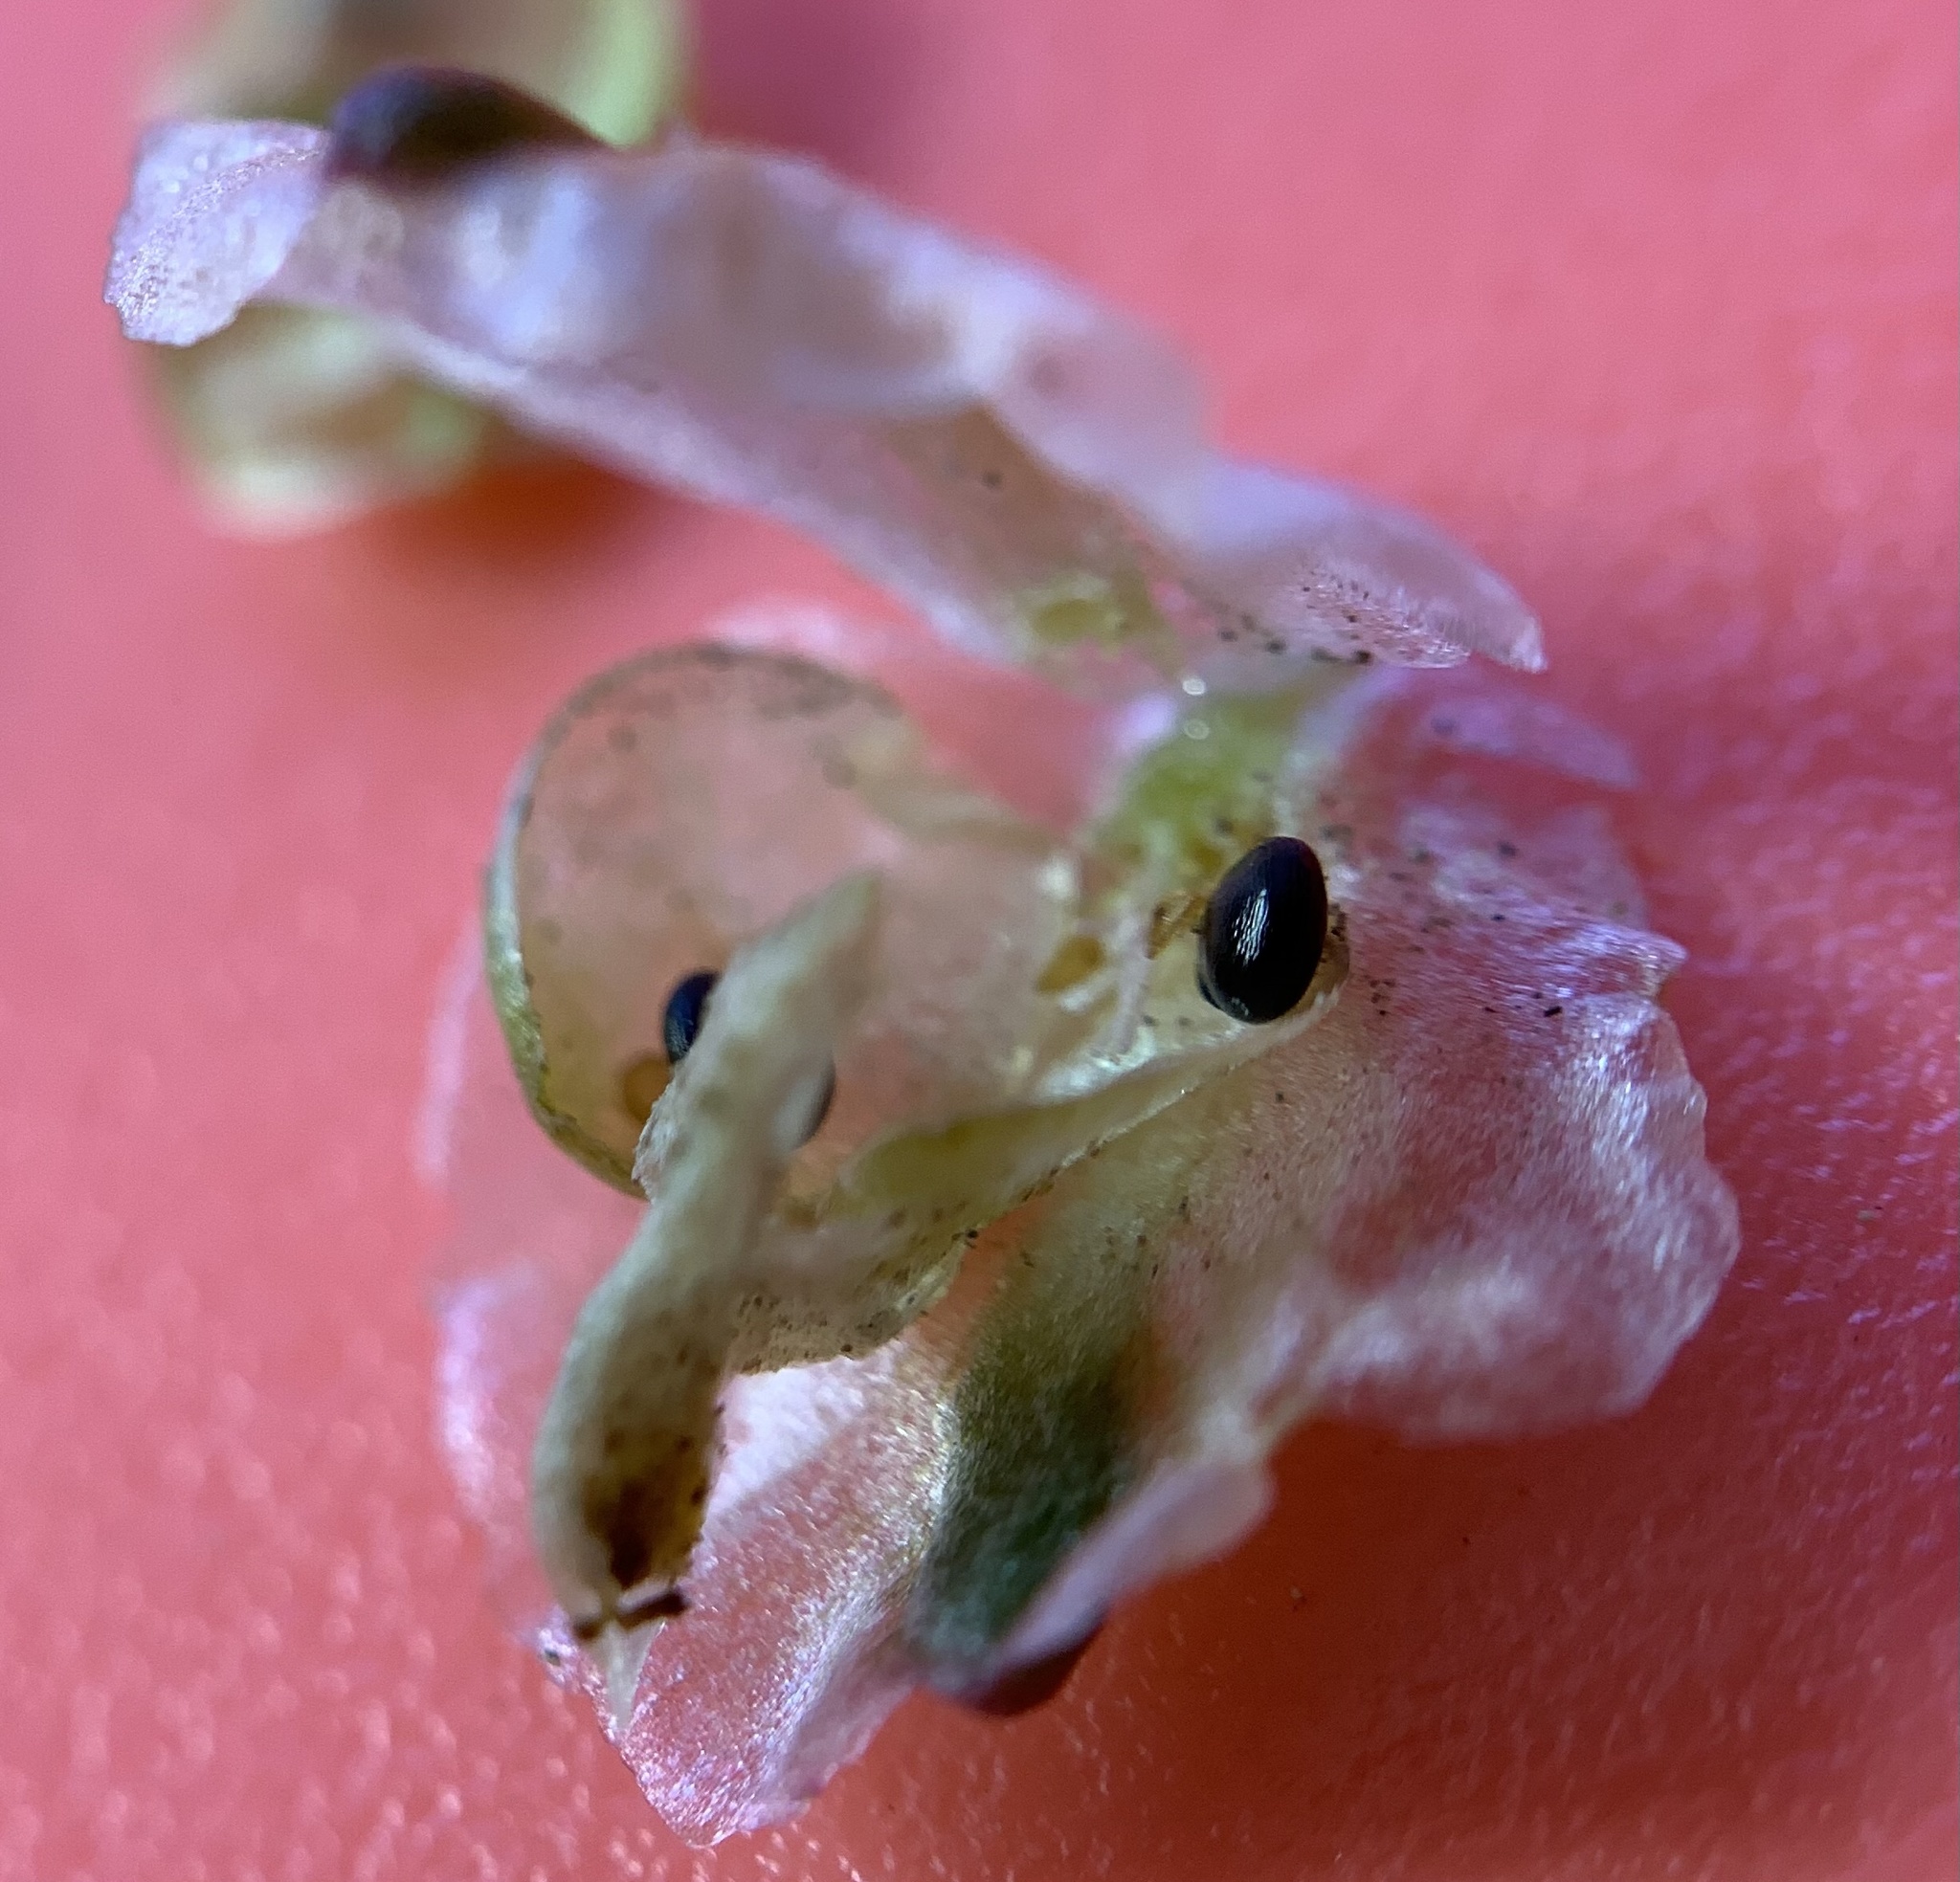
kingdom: Plantae
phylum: Tracheophyta
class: Magnoliopsida
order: Caryophyllales
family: Montiaceae
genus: Calyptridium
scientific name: Calyptridium umbellatum
